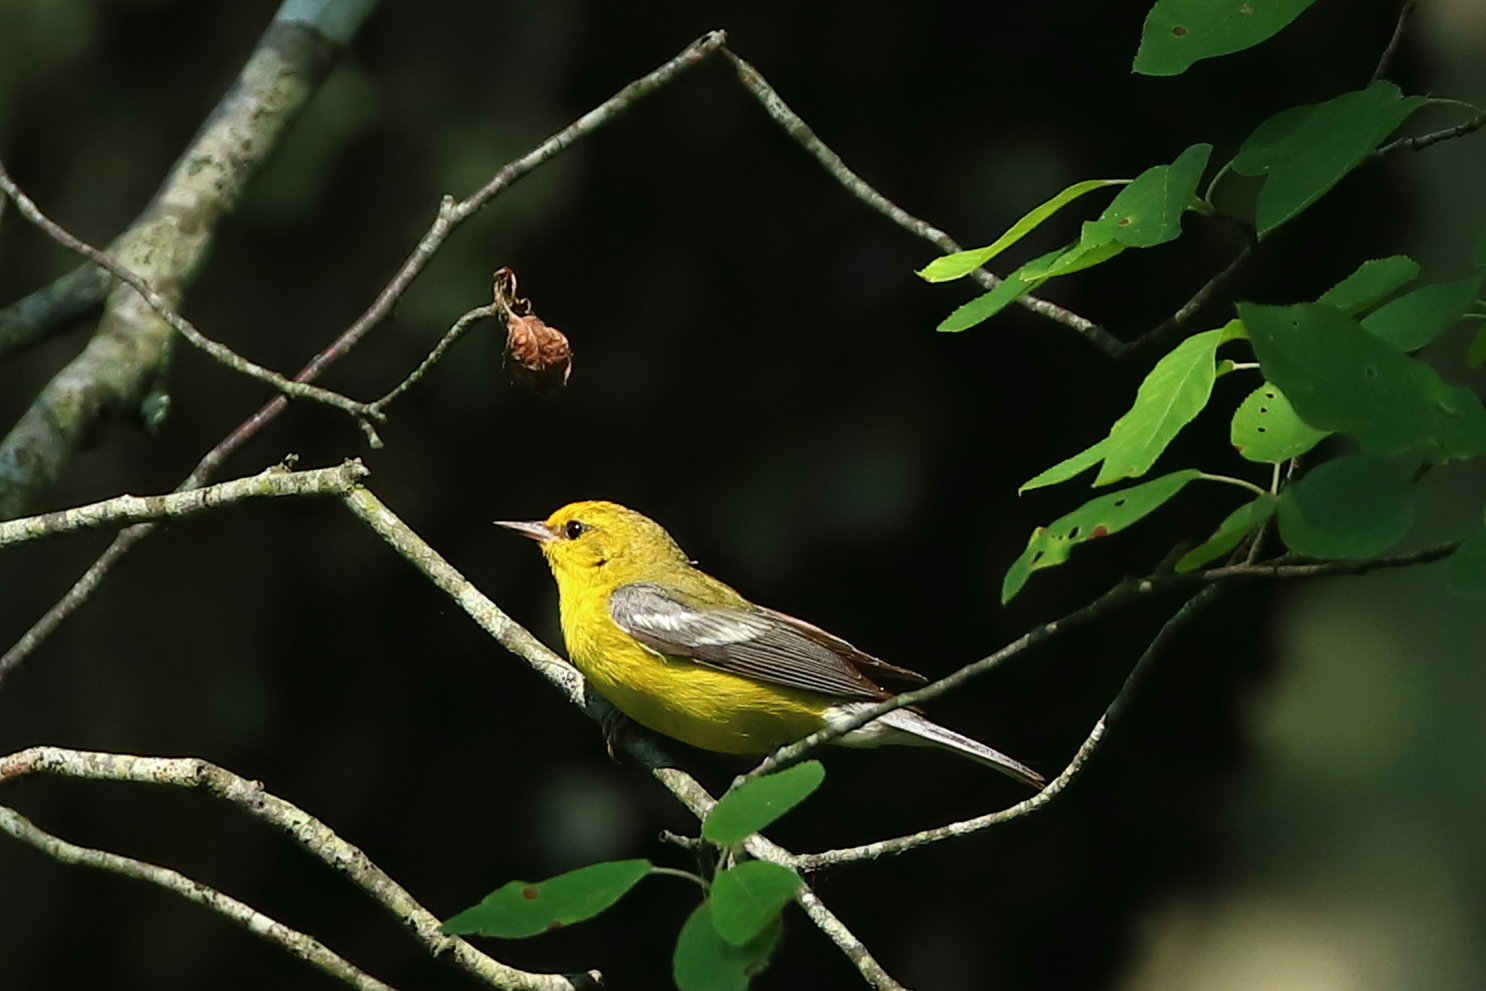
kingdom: Animalia
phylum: Chordata
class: Aves
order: Passeriformes
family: Parulidae
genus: Vermivora
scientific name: Vermivora cyanoptera
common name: Blue-winged warbler
